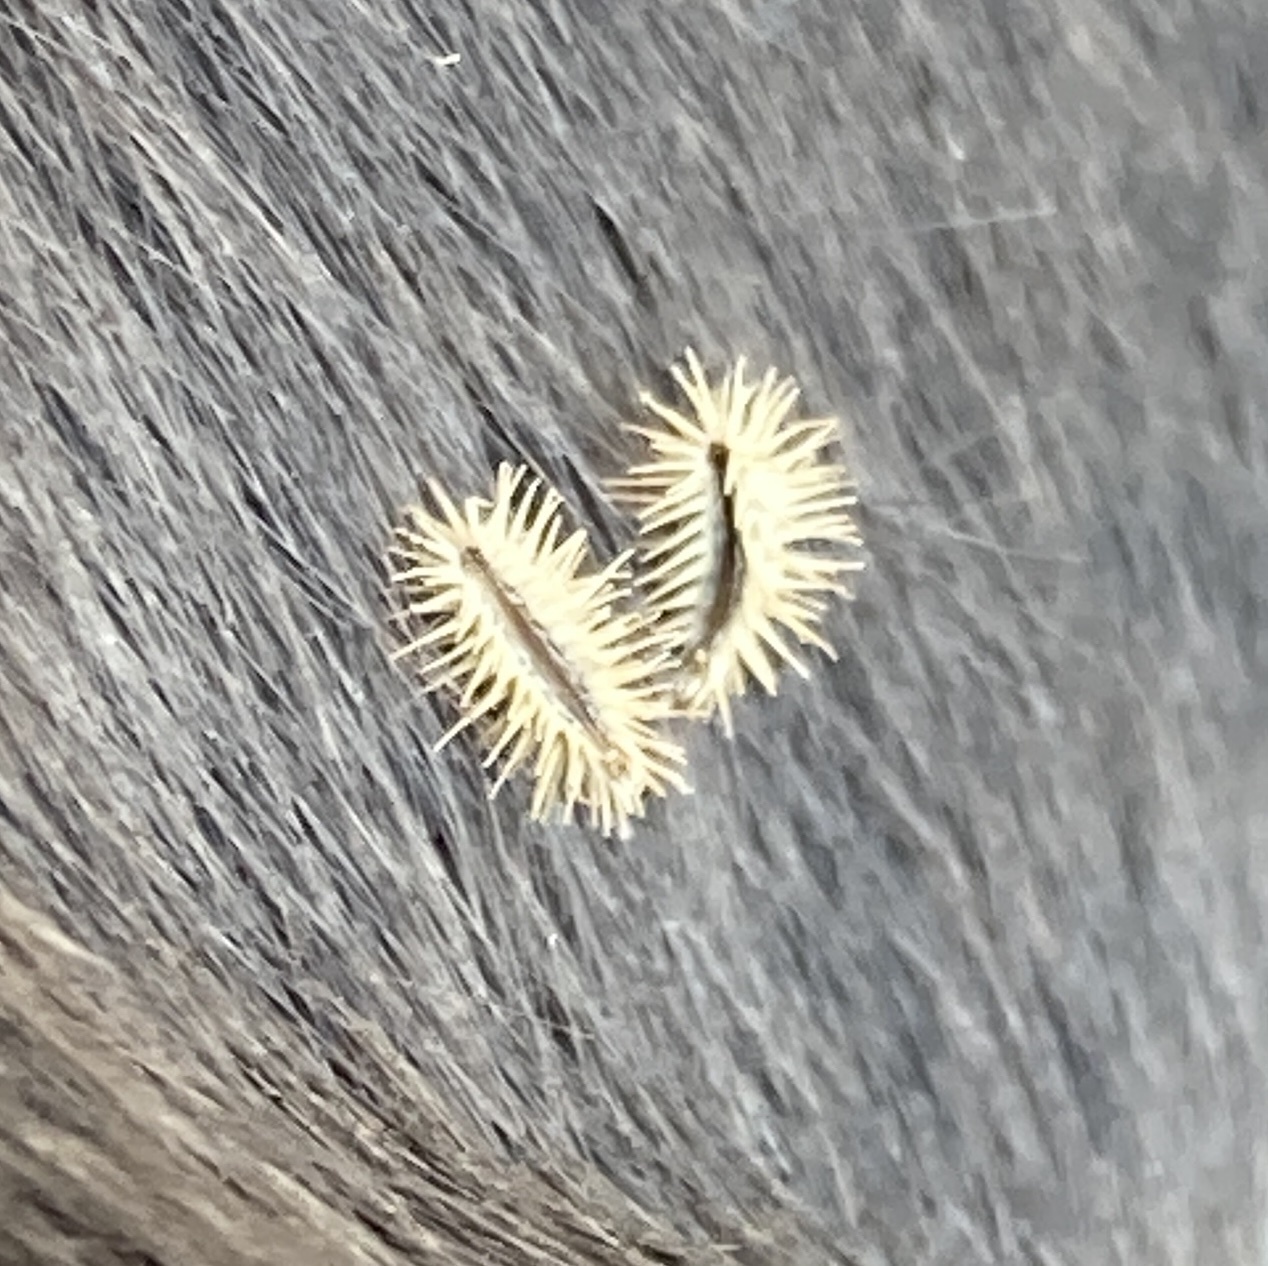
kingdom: Plantae
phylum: Tracheophyta
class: Magnoliopsida
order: Apiales
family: Apiaceae
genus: Torilis
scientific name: Torilis arvensis
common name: Spreading hedge-parsley
